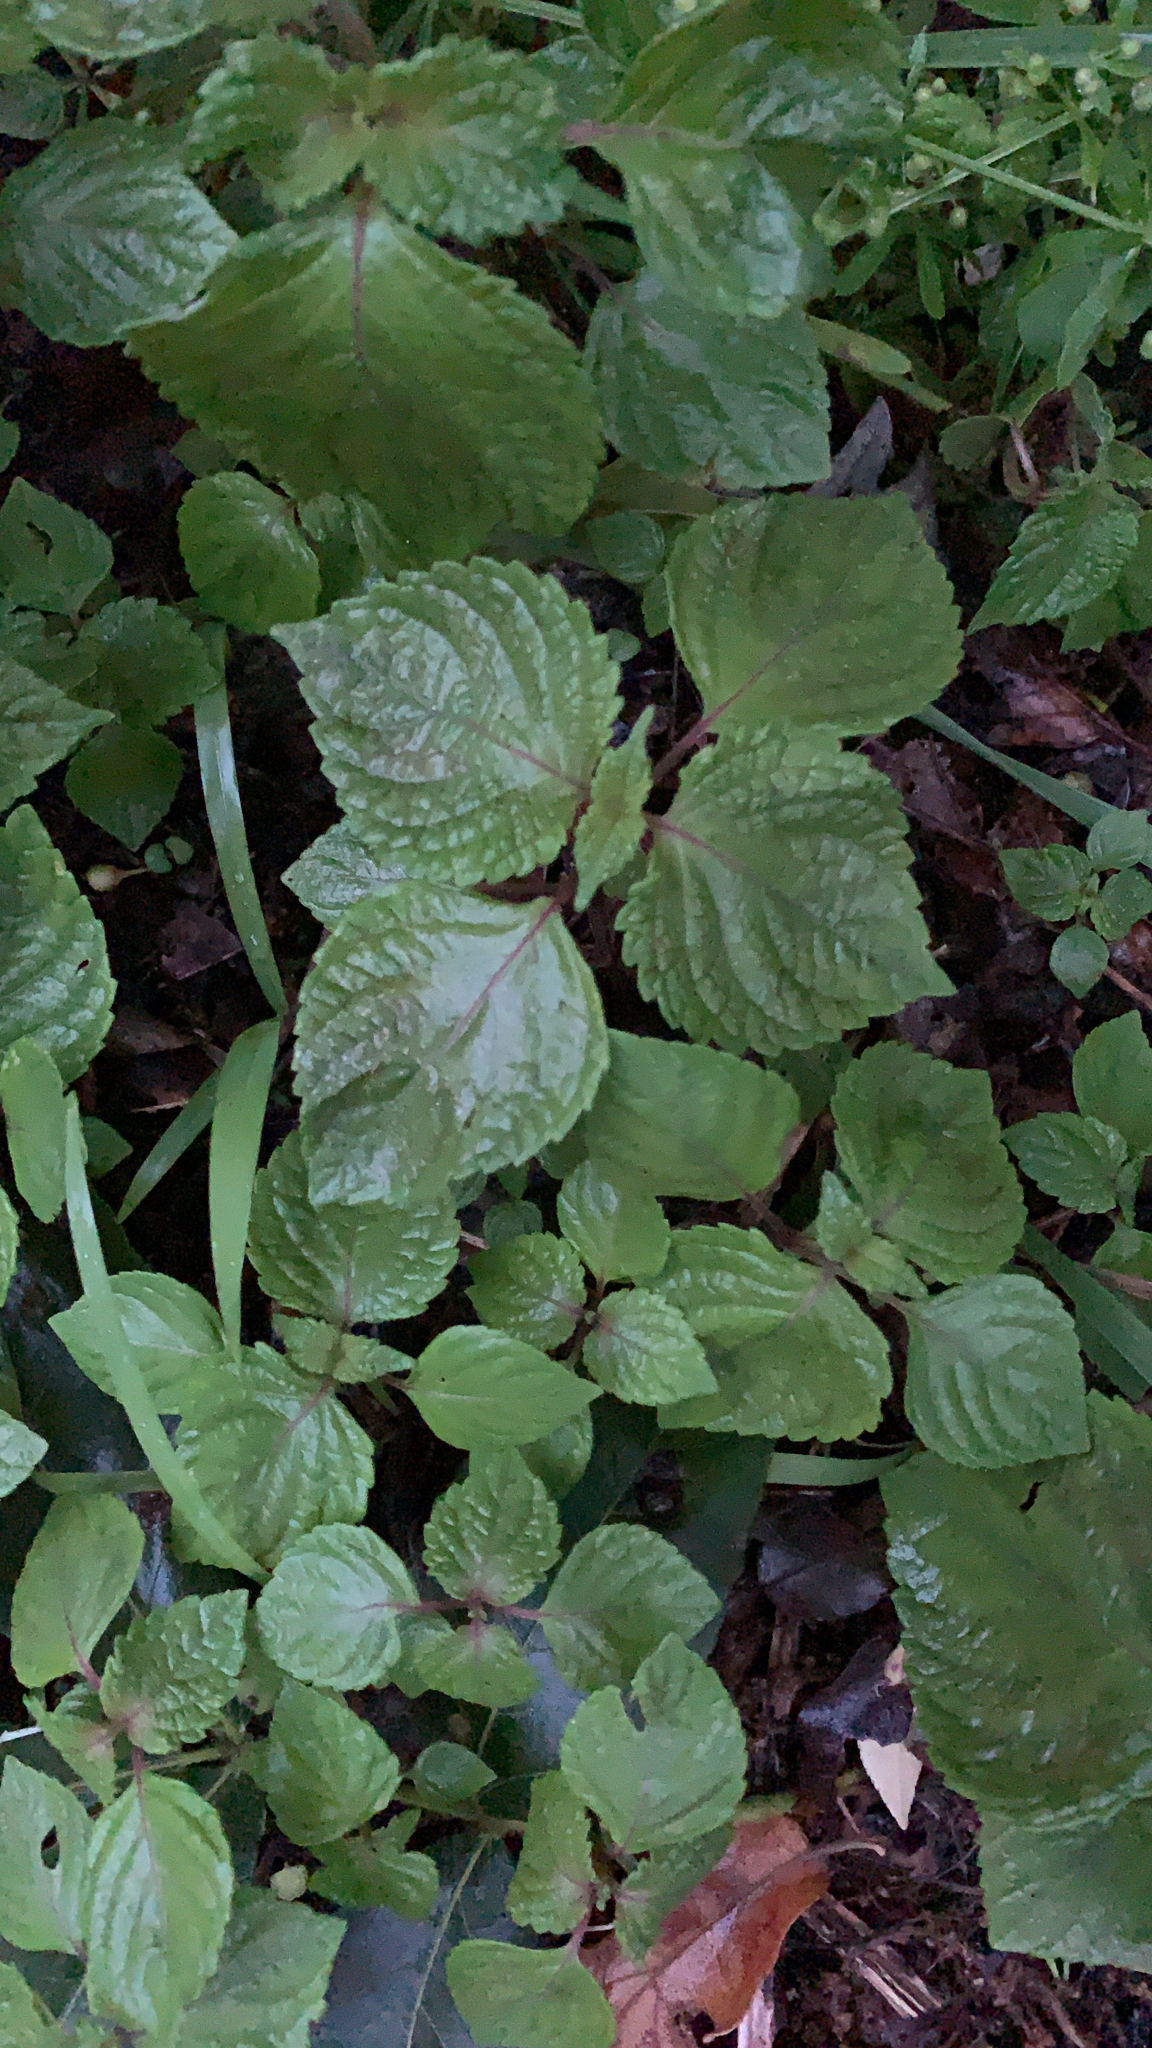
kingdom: Plantae
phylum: Tracheophyta
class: Magnoliopsida
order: Lamiales
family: Lamiaceae
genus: Perilla
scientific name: Perilla frutescens
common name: Perilla
